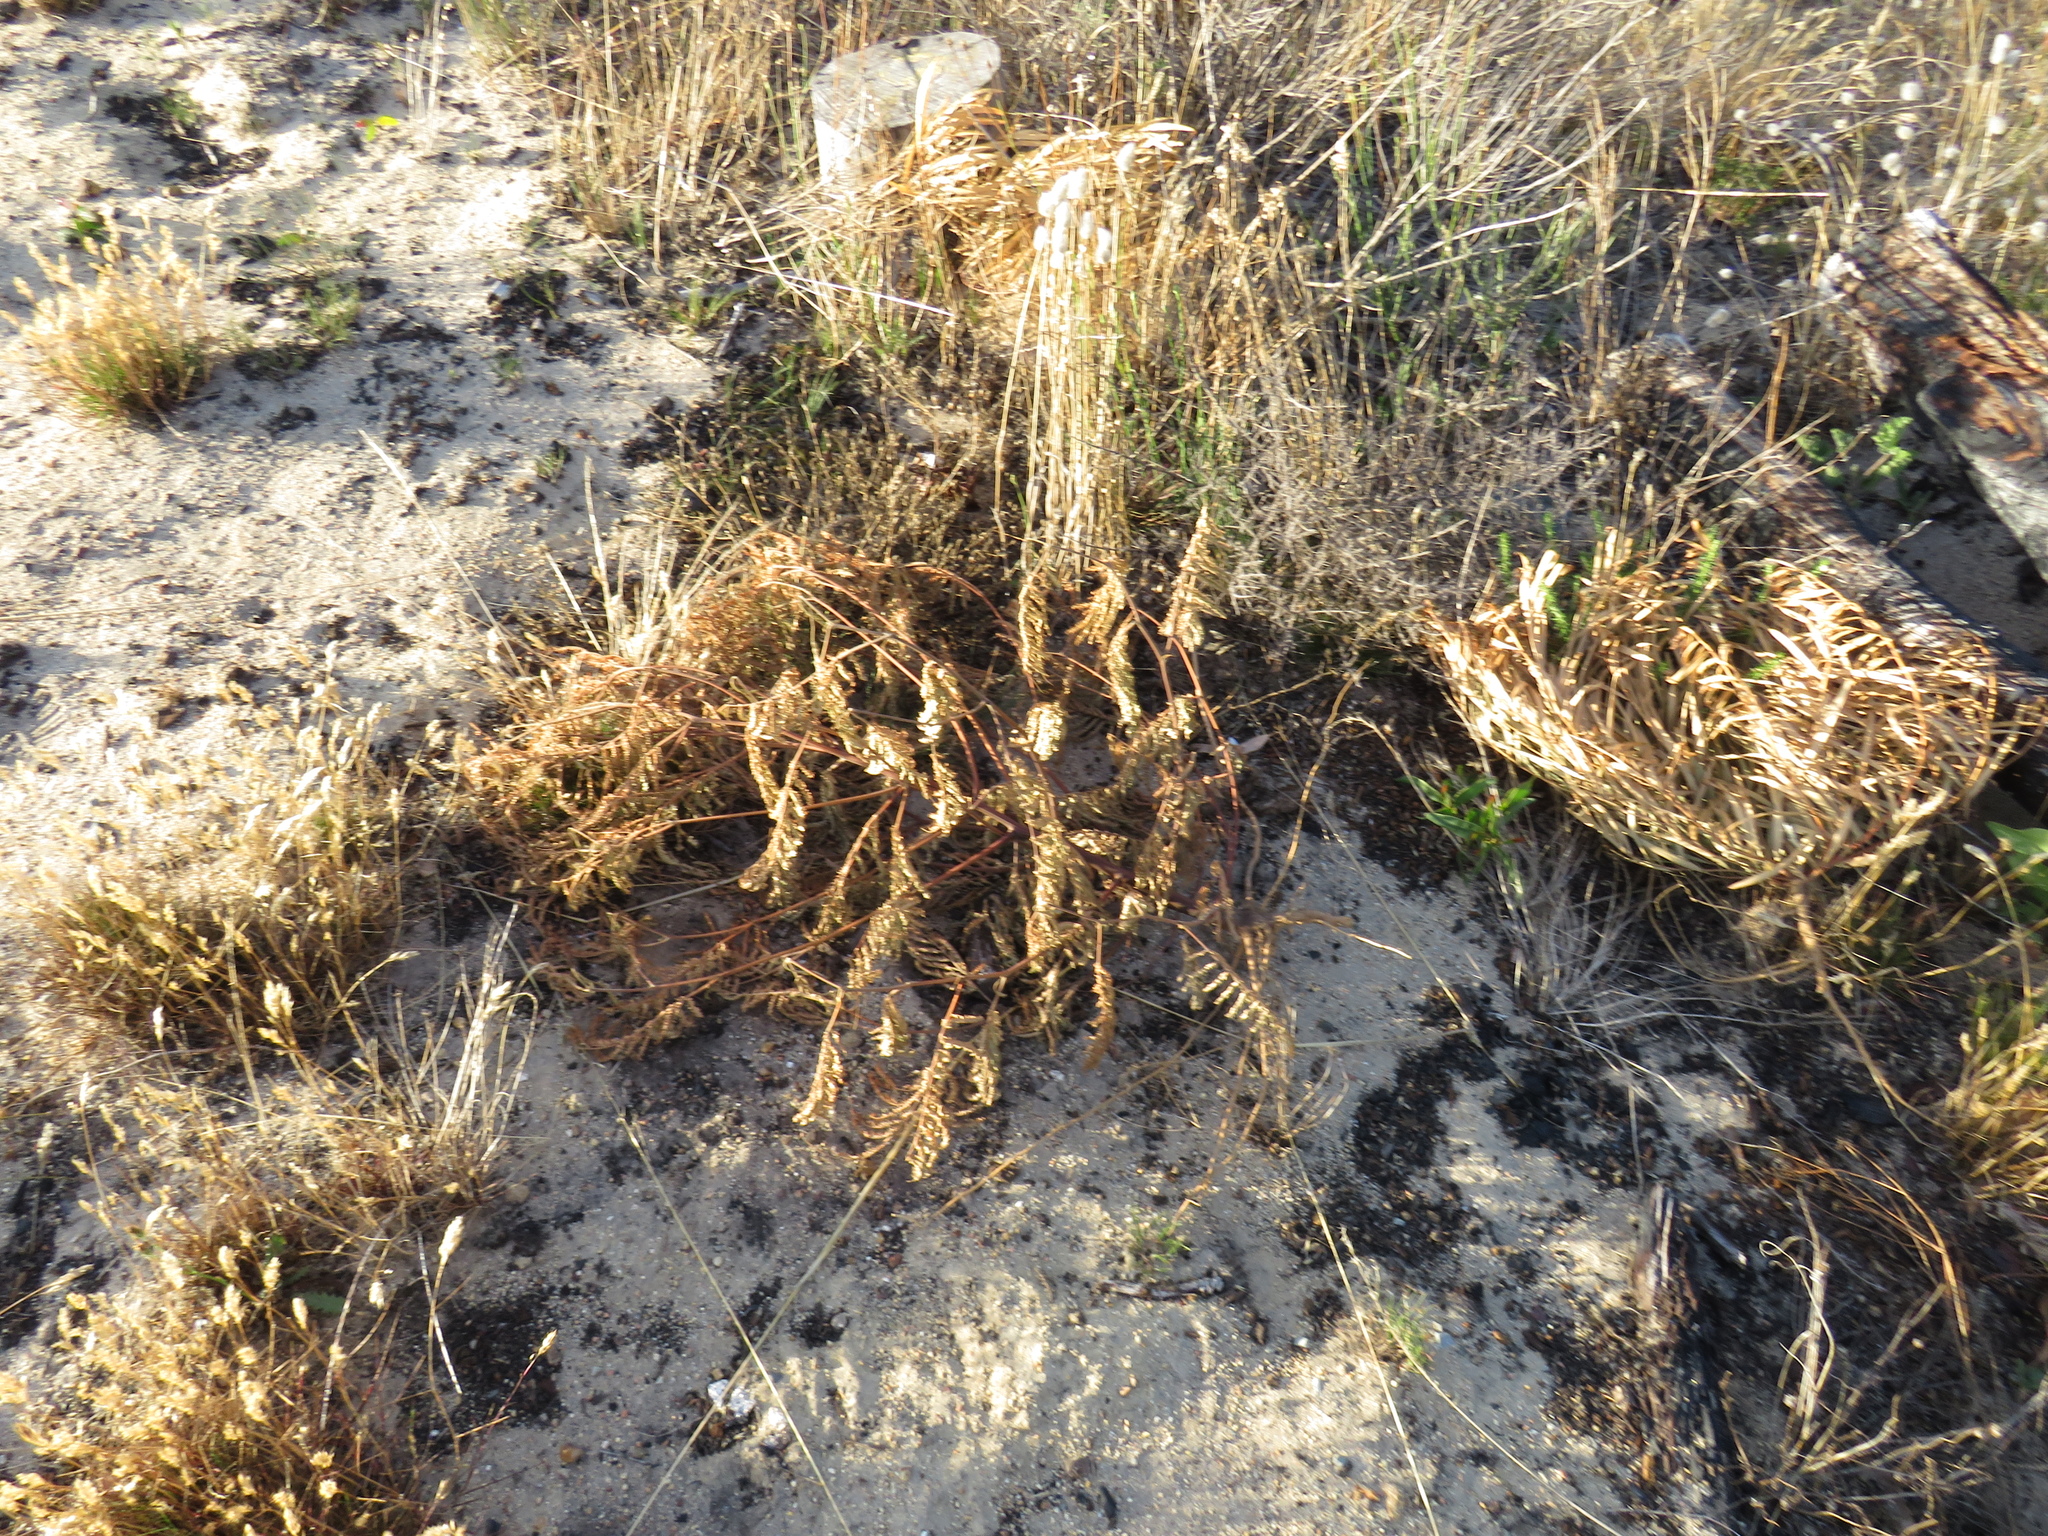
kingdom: Plantae
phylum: Tracheophyta
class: Magnoliopsida
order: Fabales
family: Fabaceae
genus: Paraserianthes
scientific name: Paraserianthes lophantha
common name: Plume albizia
